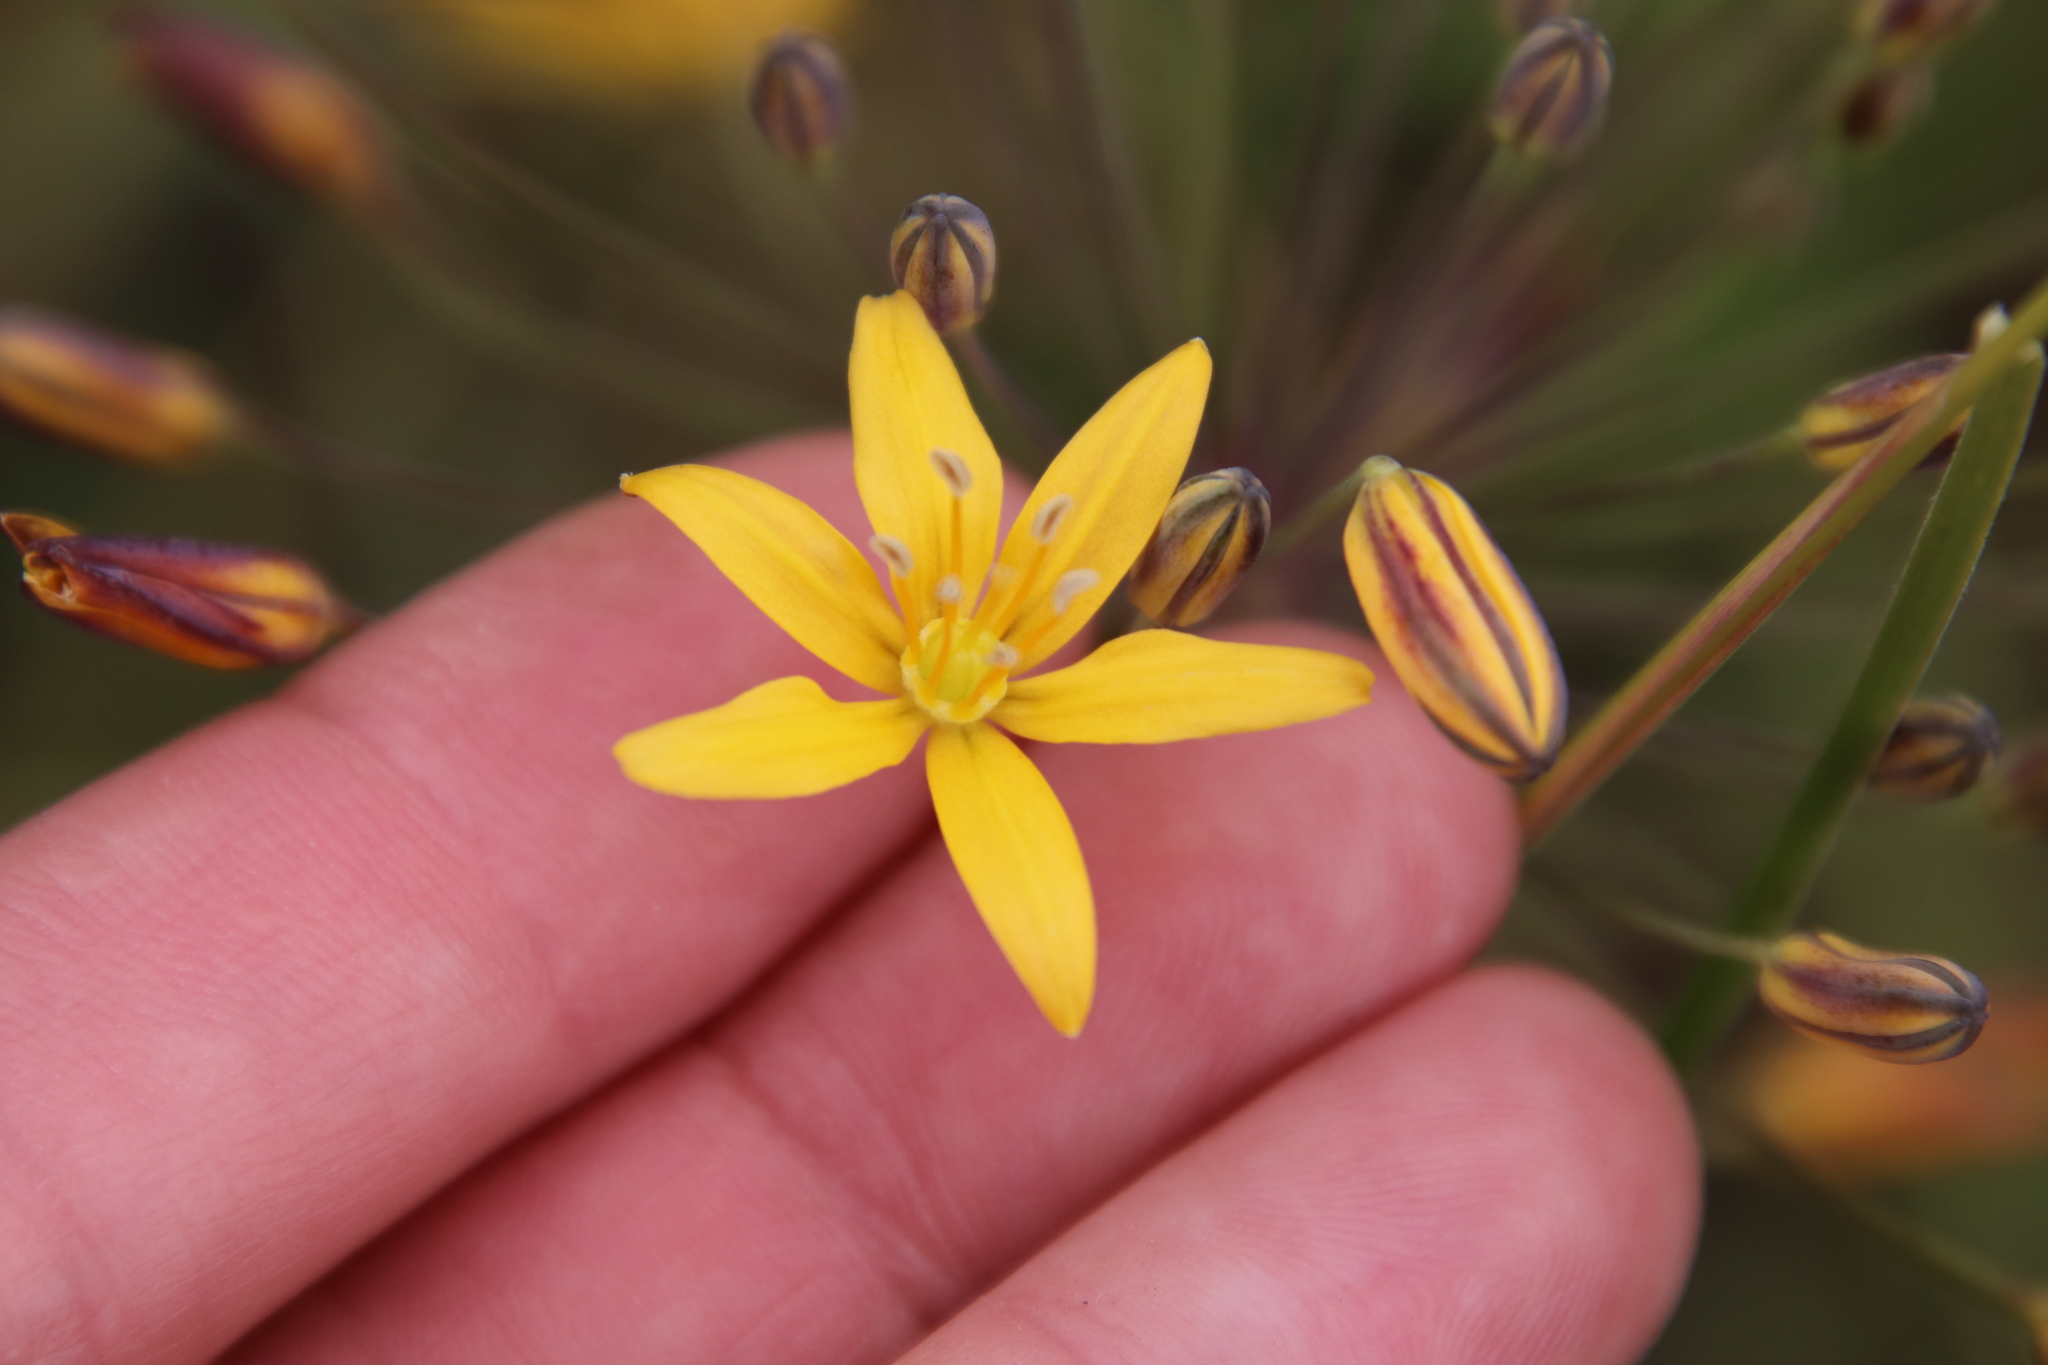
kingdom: Plantae
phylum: Tracheophyta
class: Liliopsida
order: Asparagales
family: Asparagaceae
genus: Bloomeria
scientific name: Bloomeria crocea
